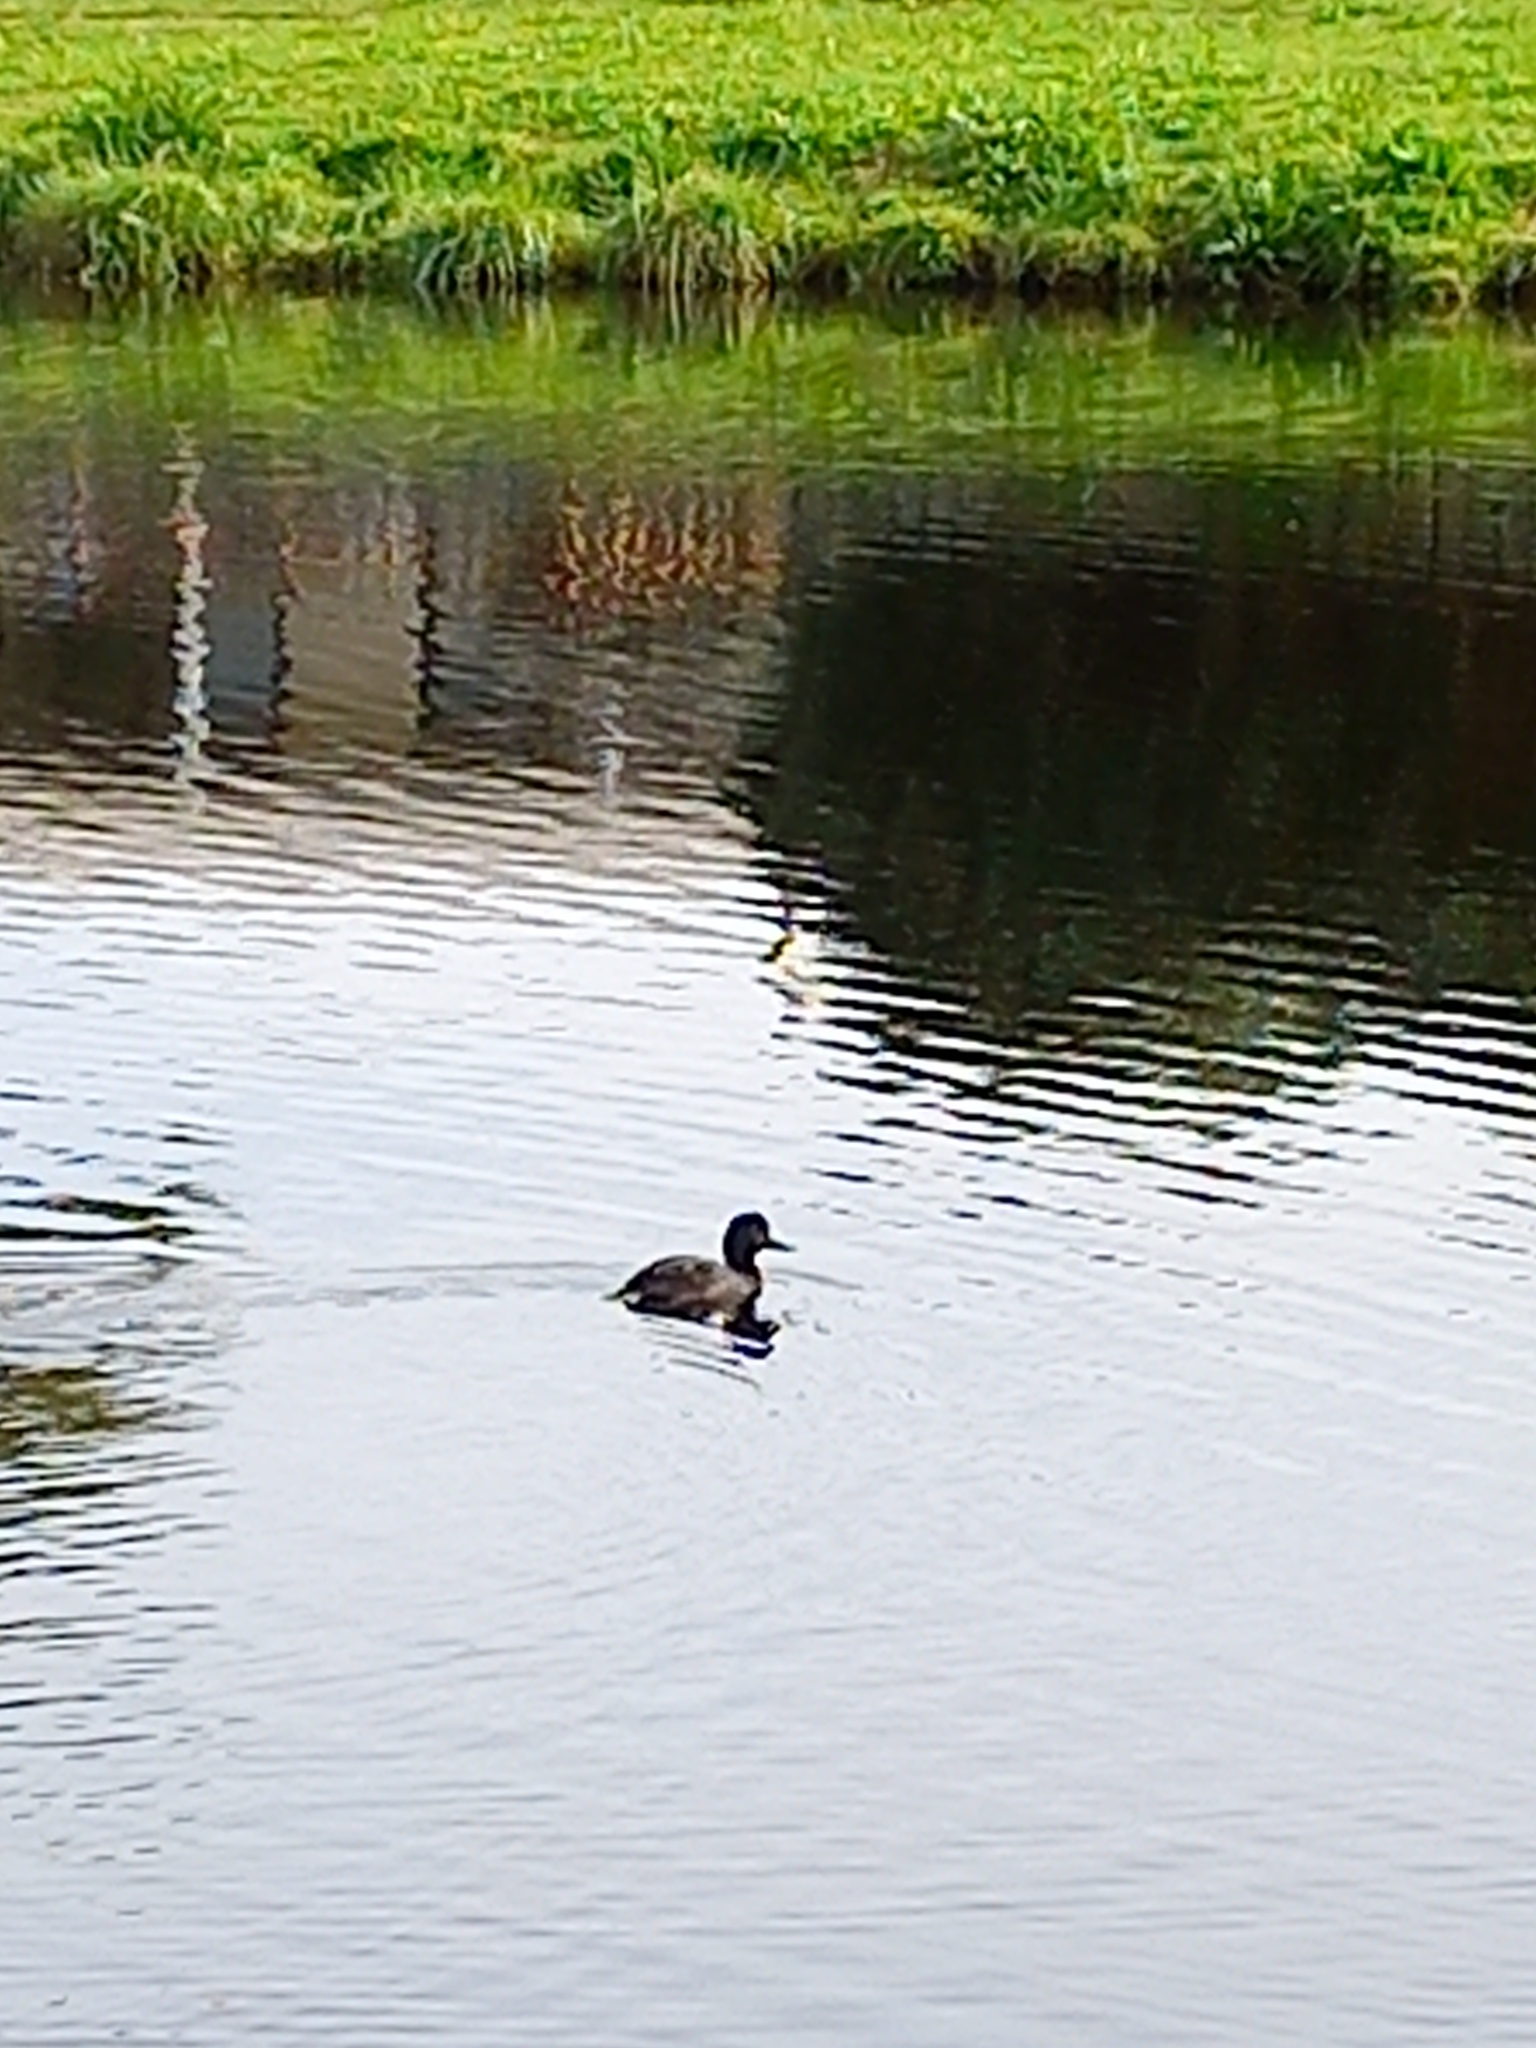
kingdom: Animalia
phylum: Chordata
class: Aves
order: Anseriformes
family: Anatidae
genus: Aythya
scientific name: Aythya novaeseelandiae
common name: New zealand scaup
